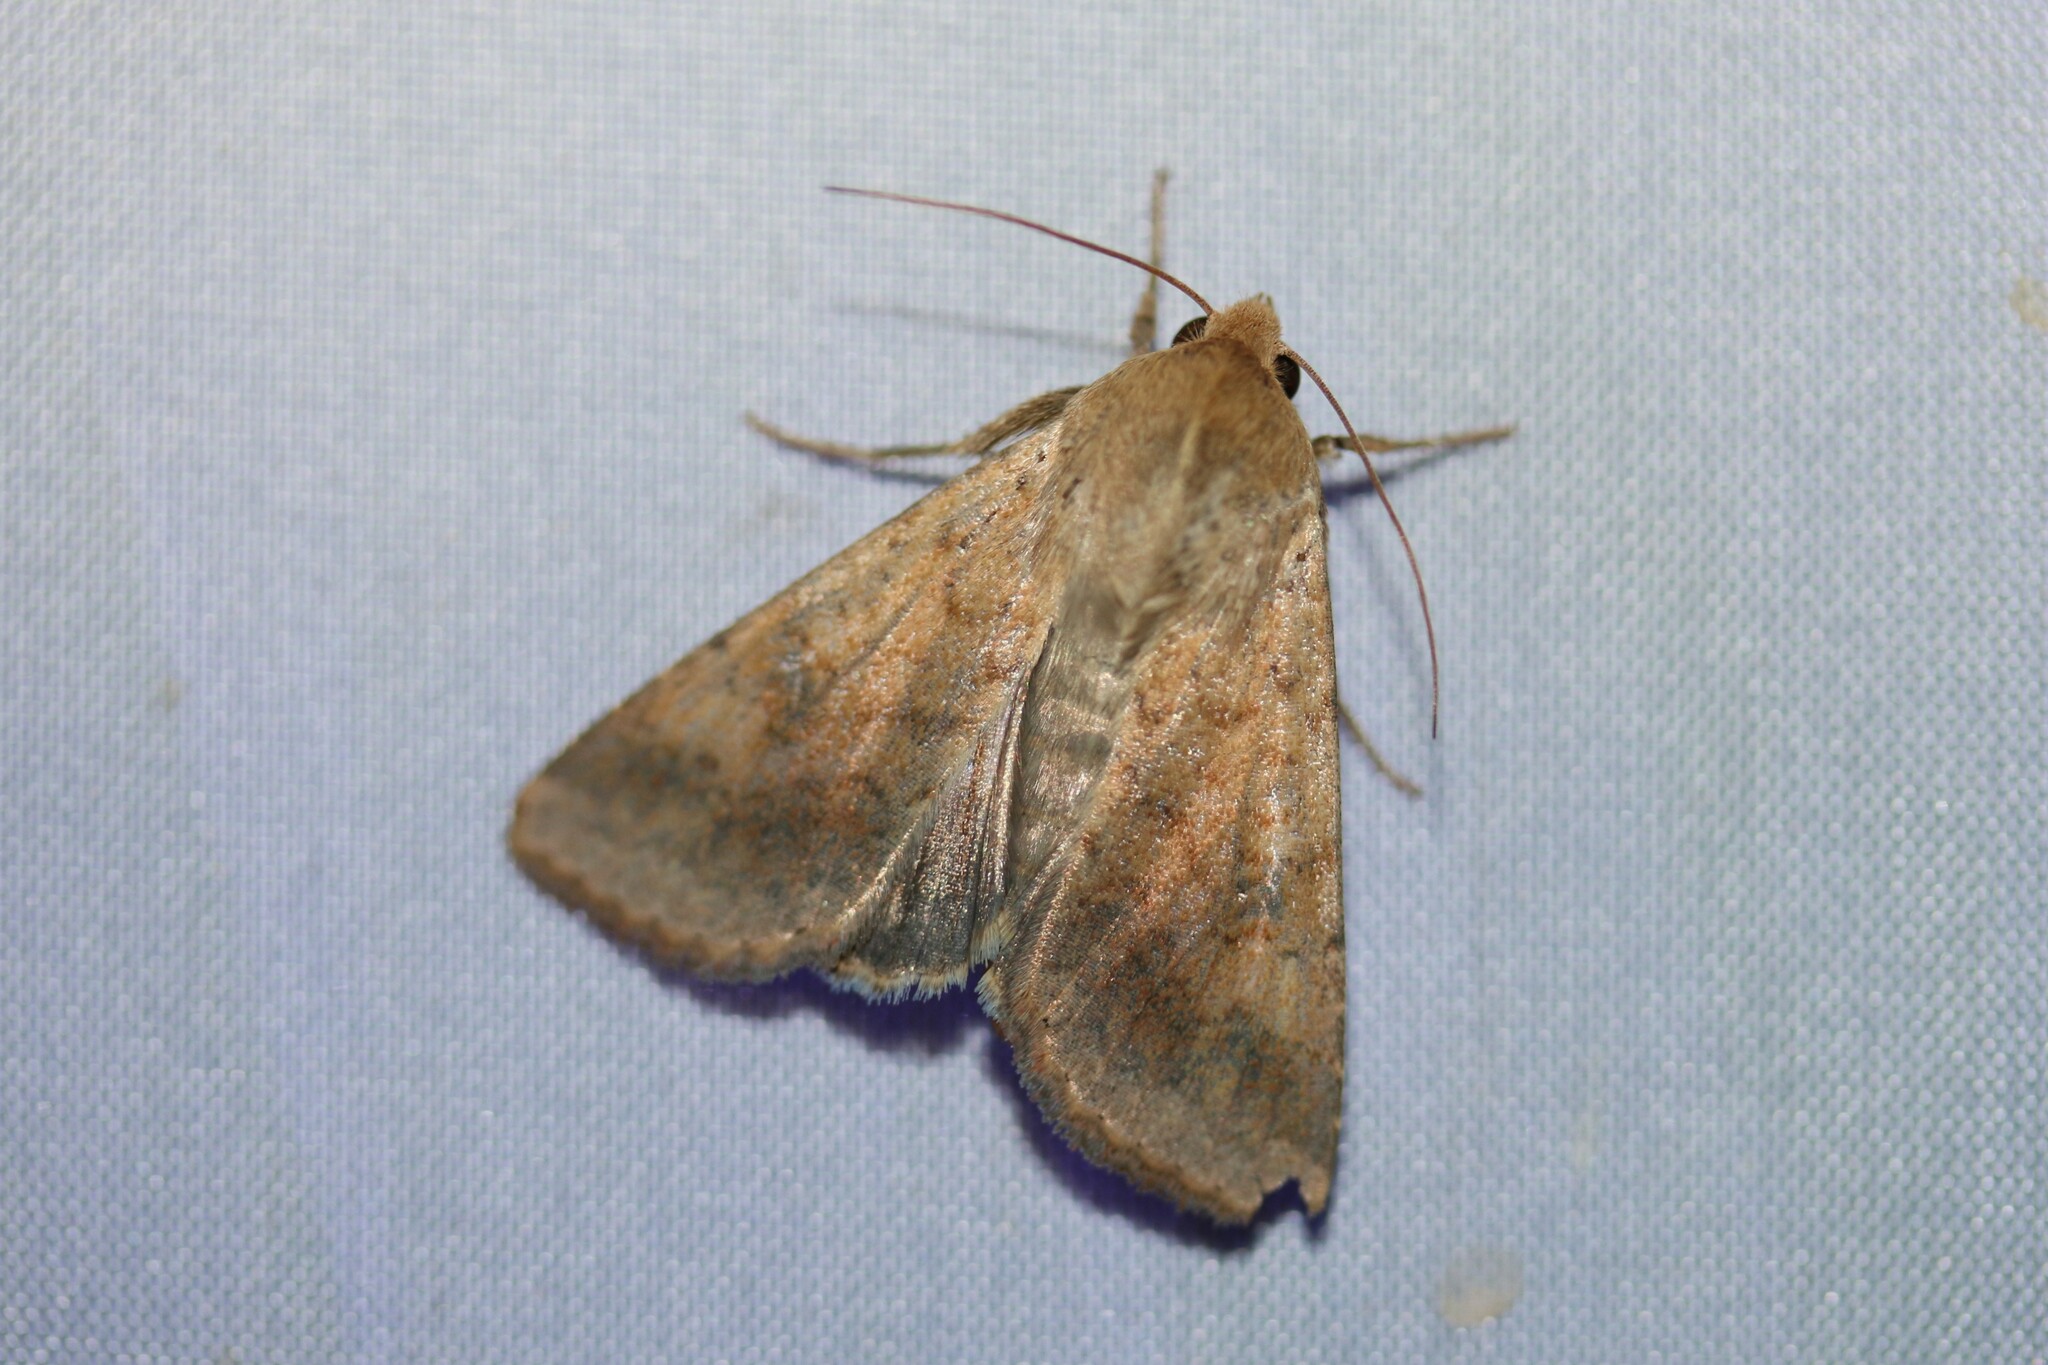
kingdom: Animalia
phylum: Arthropoda
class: Insecta
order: Lepidoptera
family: Noctuidae
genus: Helicoverpa
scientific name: Helicoverpa armigera
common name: Cotton bollworm
